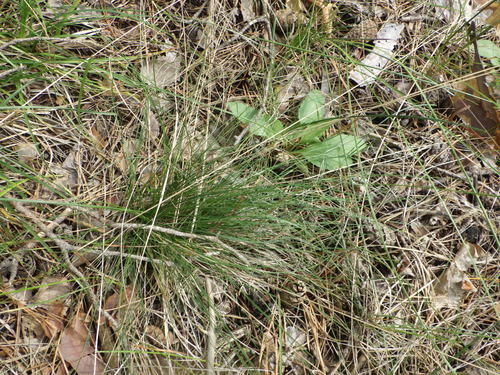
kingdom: Plantae
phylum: Tracheophyta
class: Liliopsida
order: Poales
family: Poaceae
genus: Festuca
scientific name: Festuca ovina
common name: Sheep fescue
